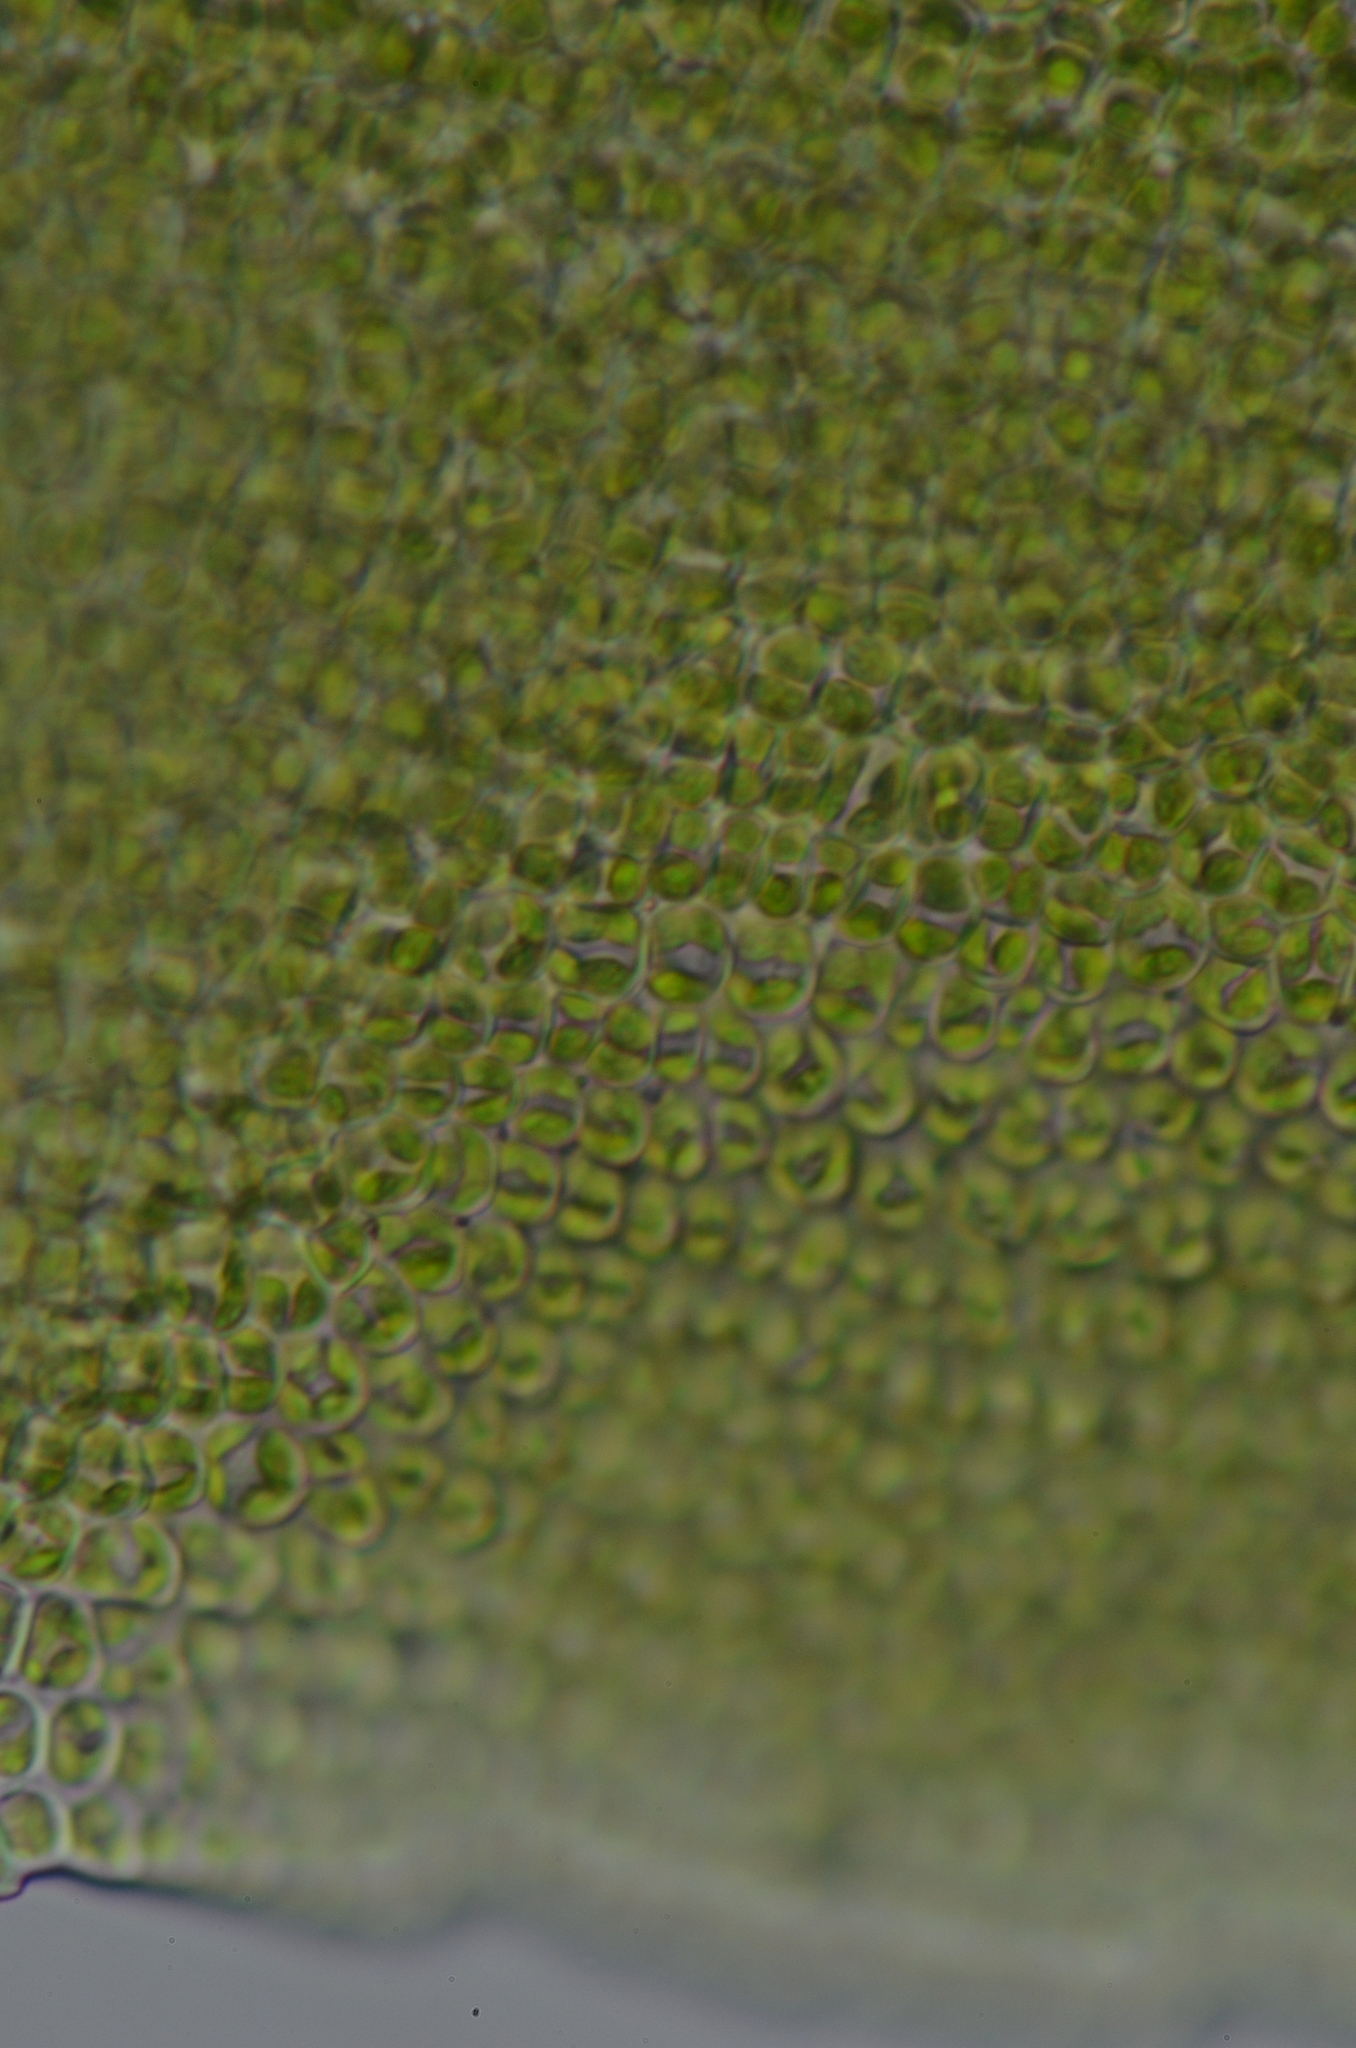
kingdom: Plantae
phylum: Bryophyta
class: Bryopsida
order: Scouleriales
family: Timmiellaceae
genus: Timmiella
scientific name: Timmiella crassinervis
